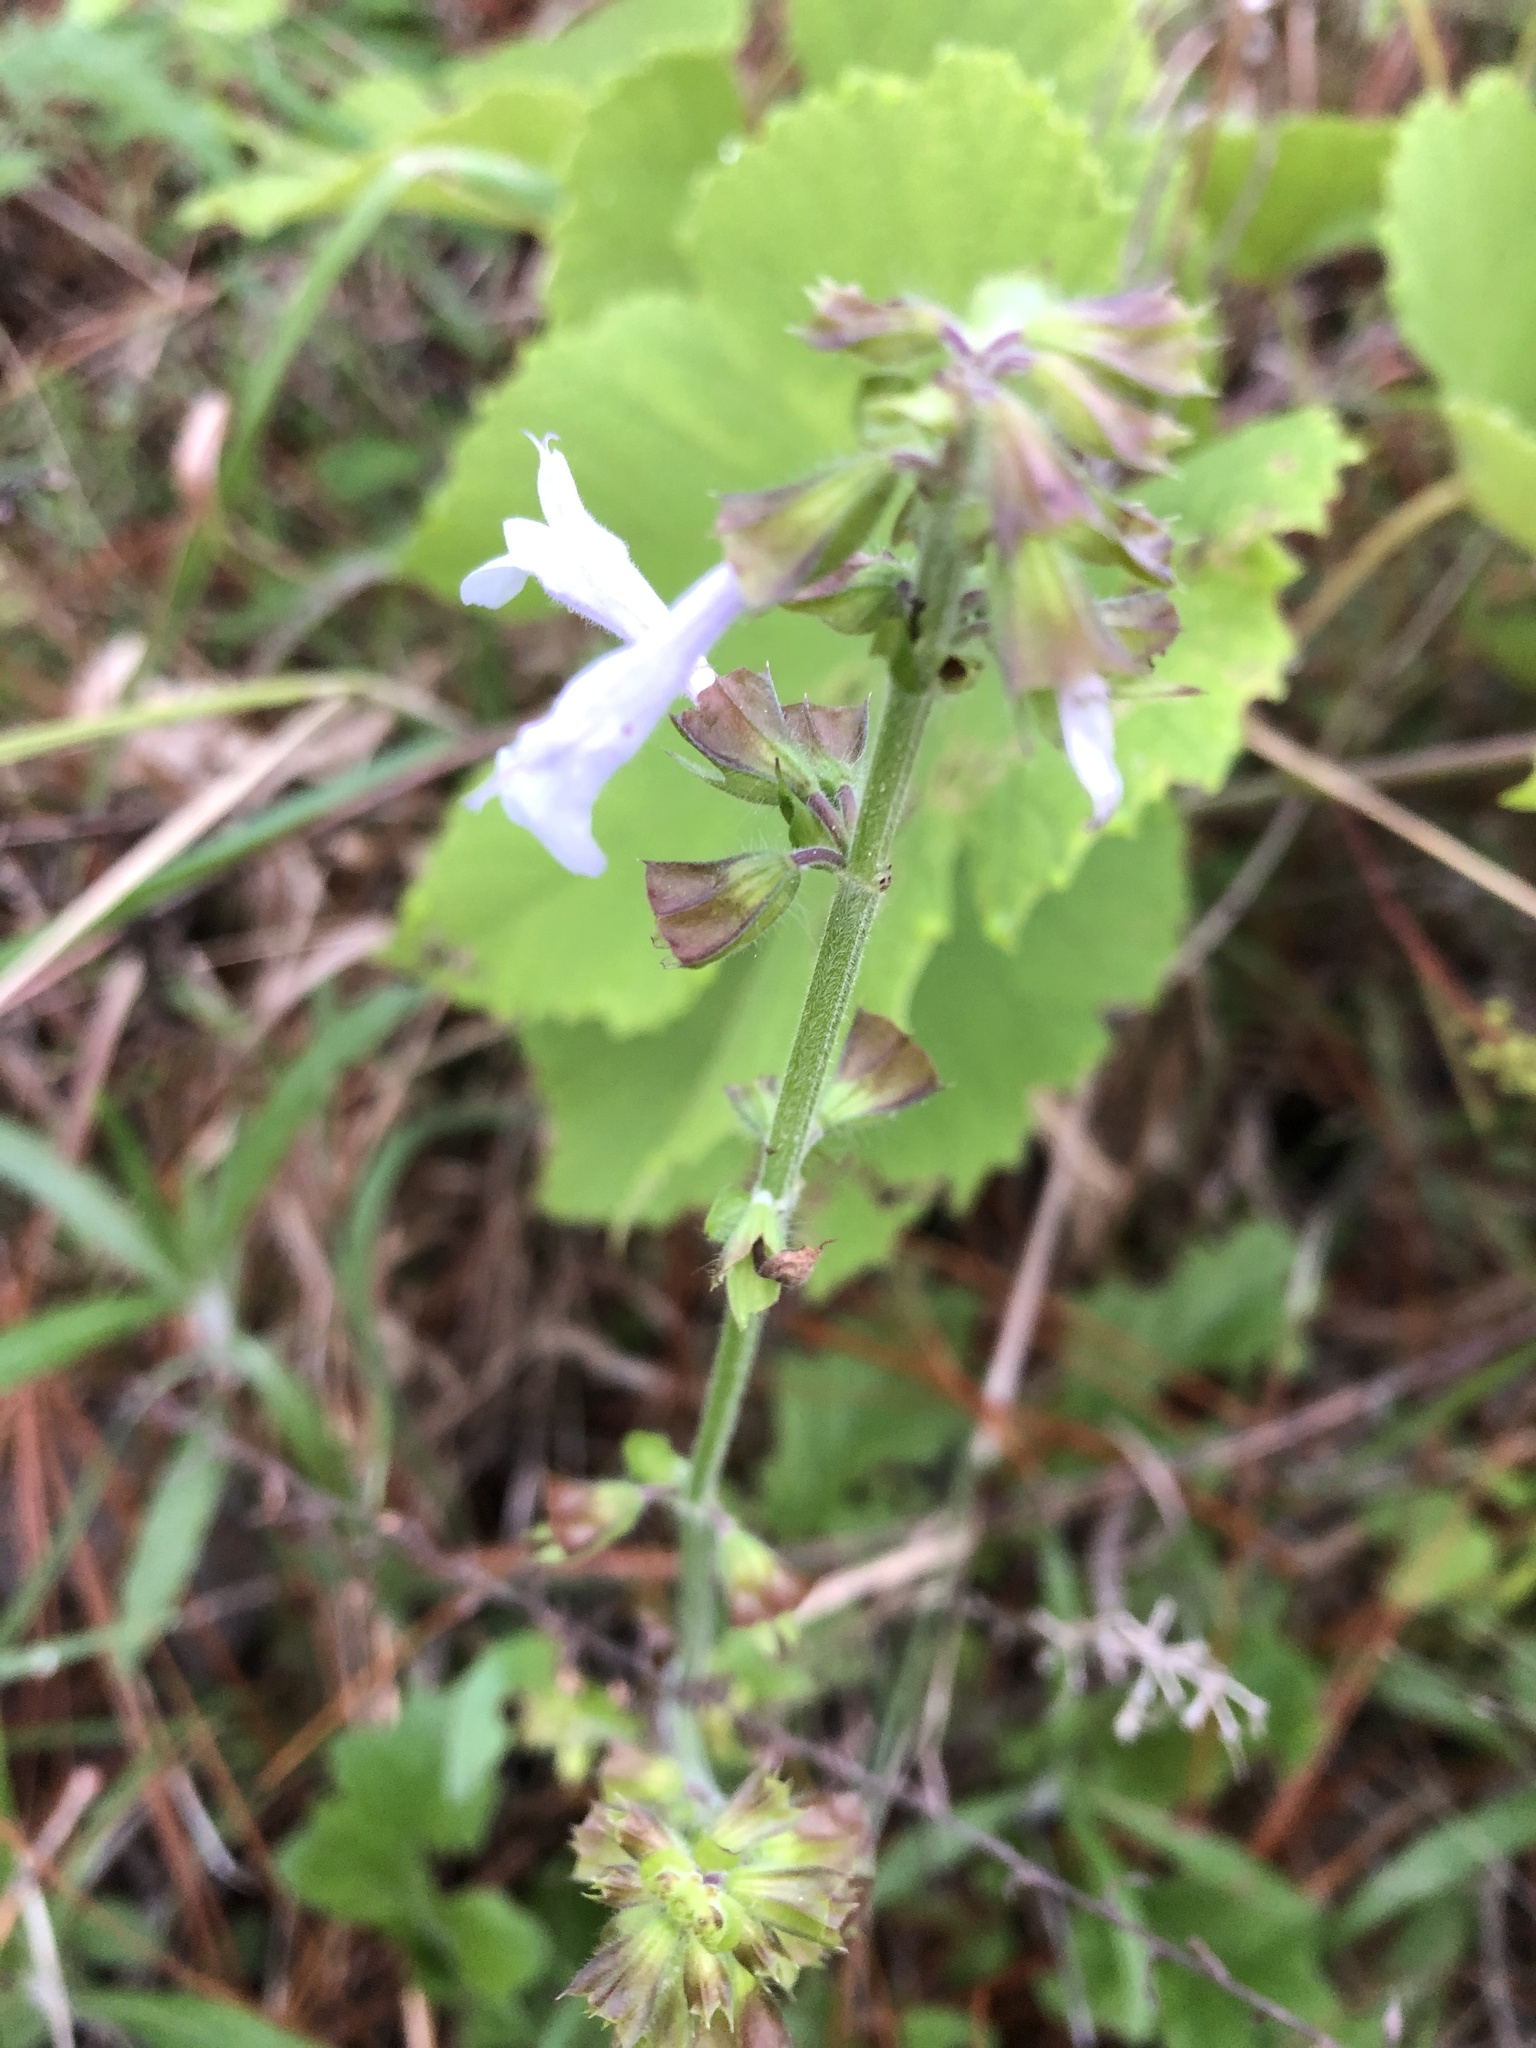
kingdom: Plantae
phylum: Tracheophyta
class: Magnoliopsida
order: Lamiales
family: Lamiaceae
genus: Salvia
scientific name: Salvia lyrata
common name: Cancerweed
